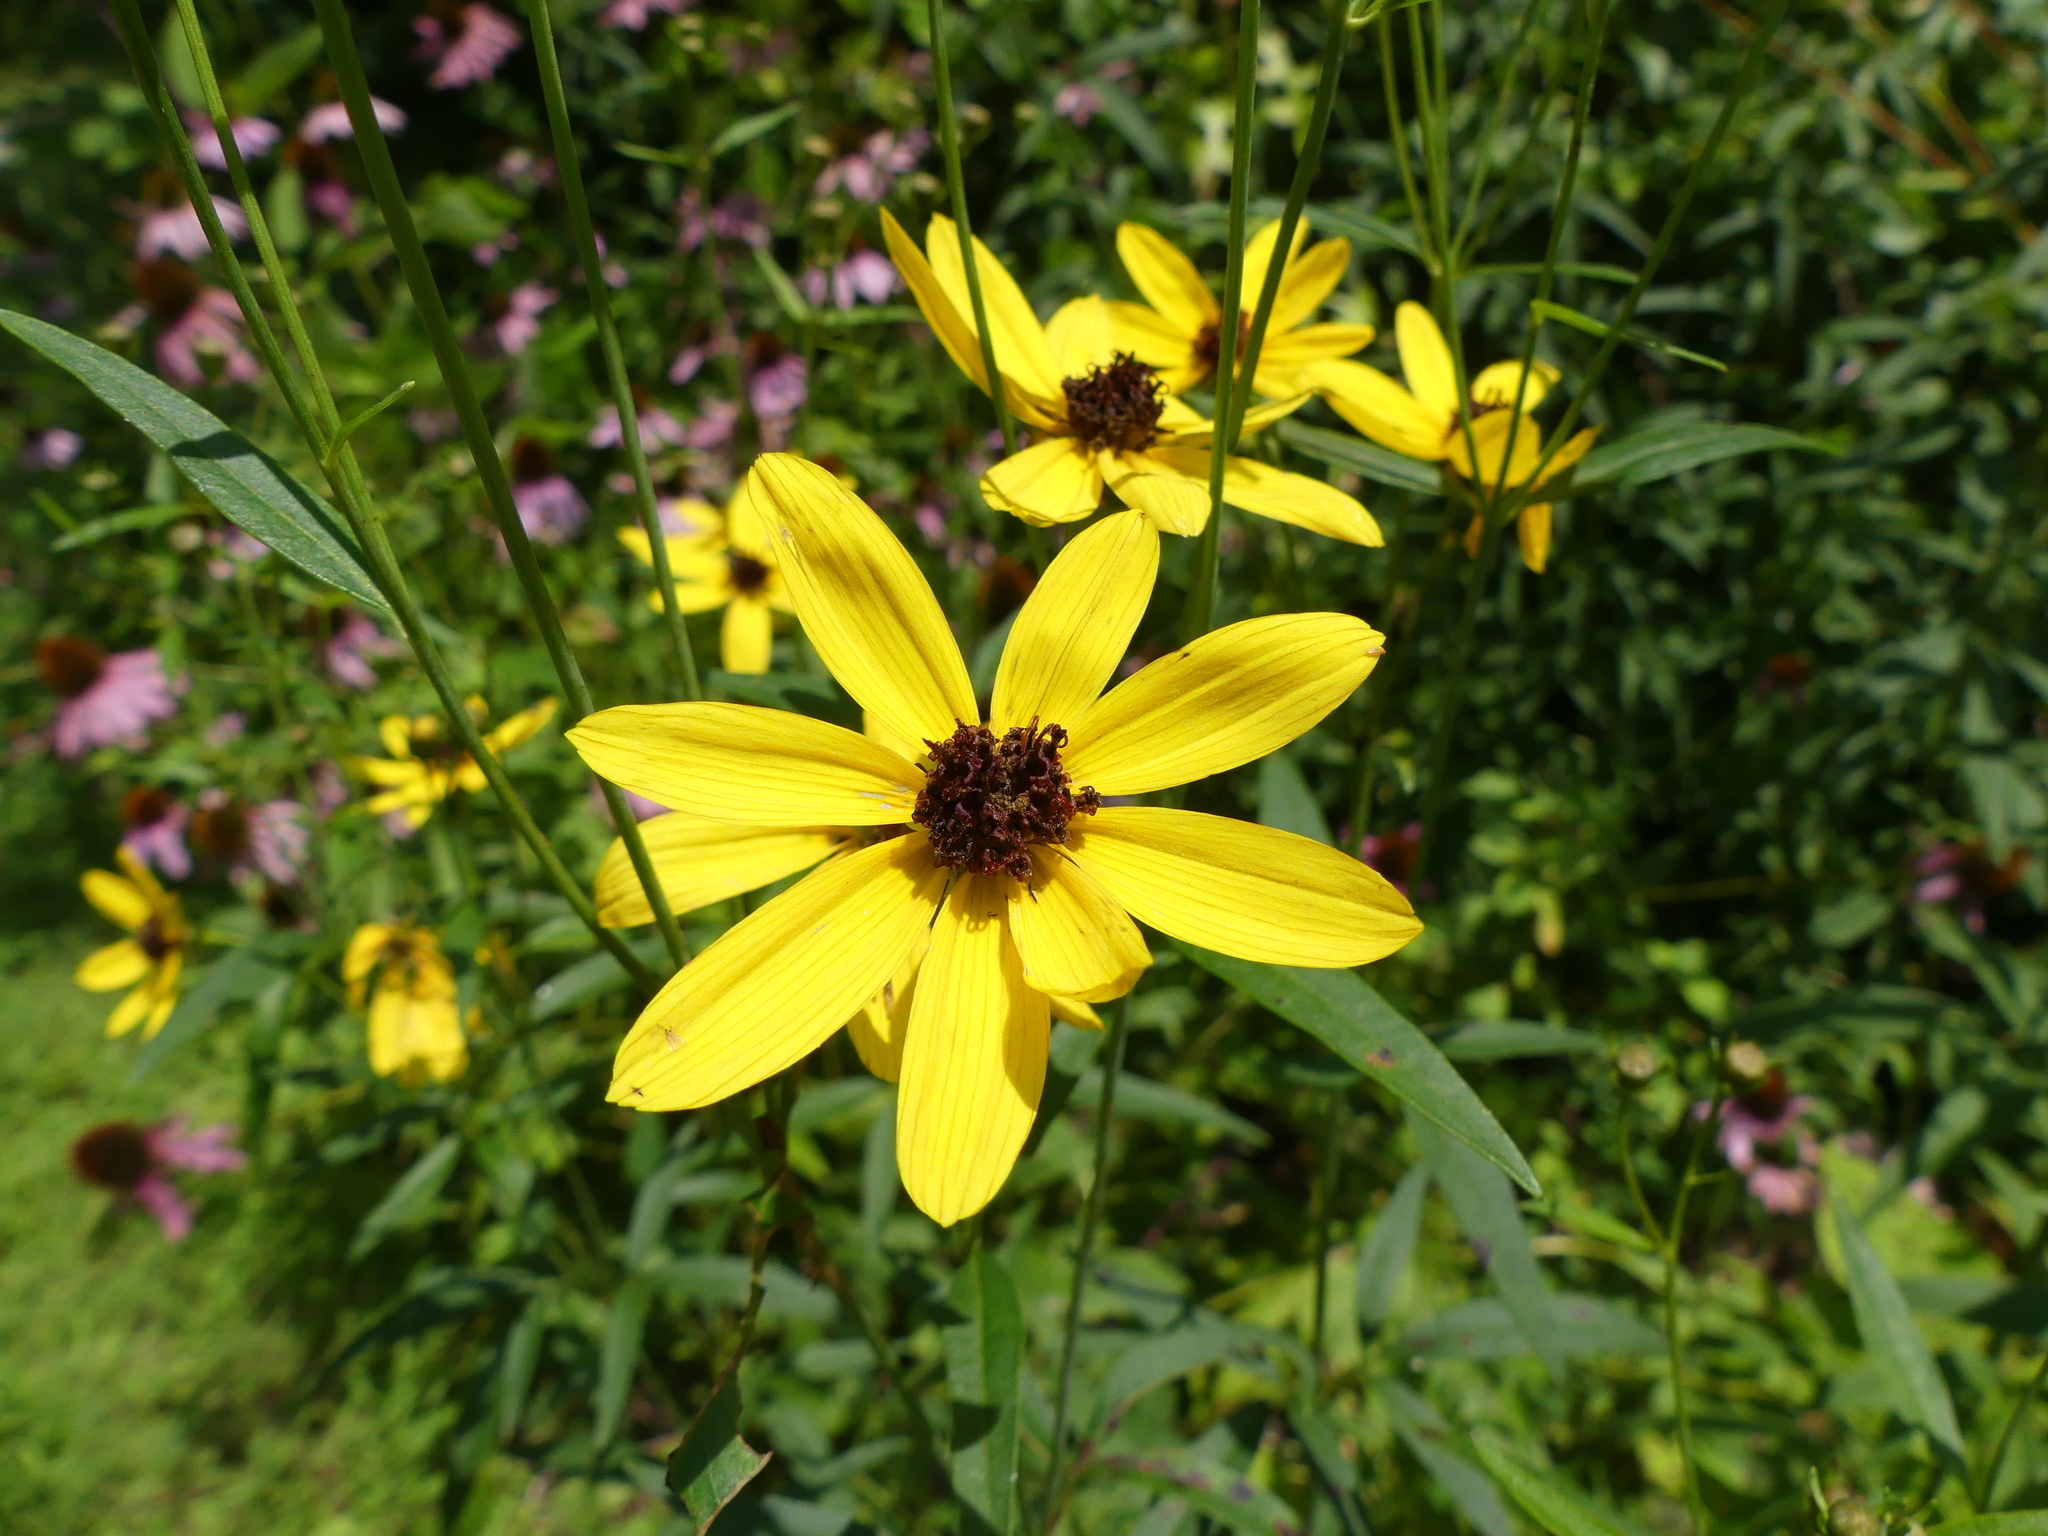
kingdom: Plantae
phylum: Tracheophyta
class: Magnoliopsida
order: Asterales
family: Asteraceae
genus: Coreopsis
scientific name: Coreopsis tripteris
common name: Tall coreopsis
